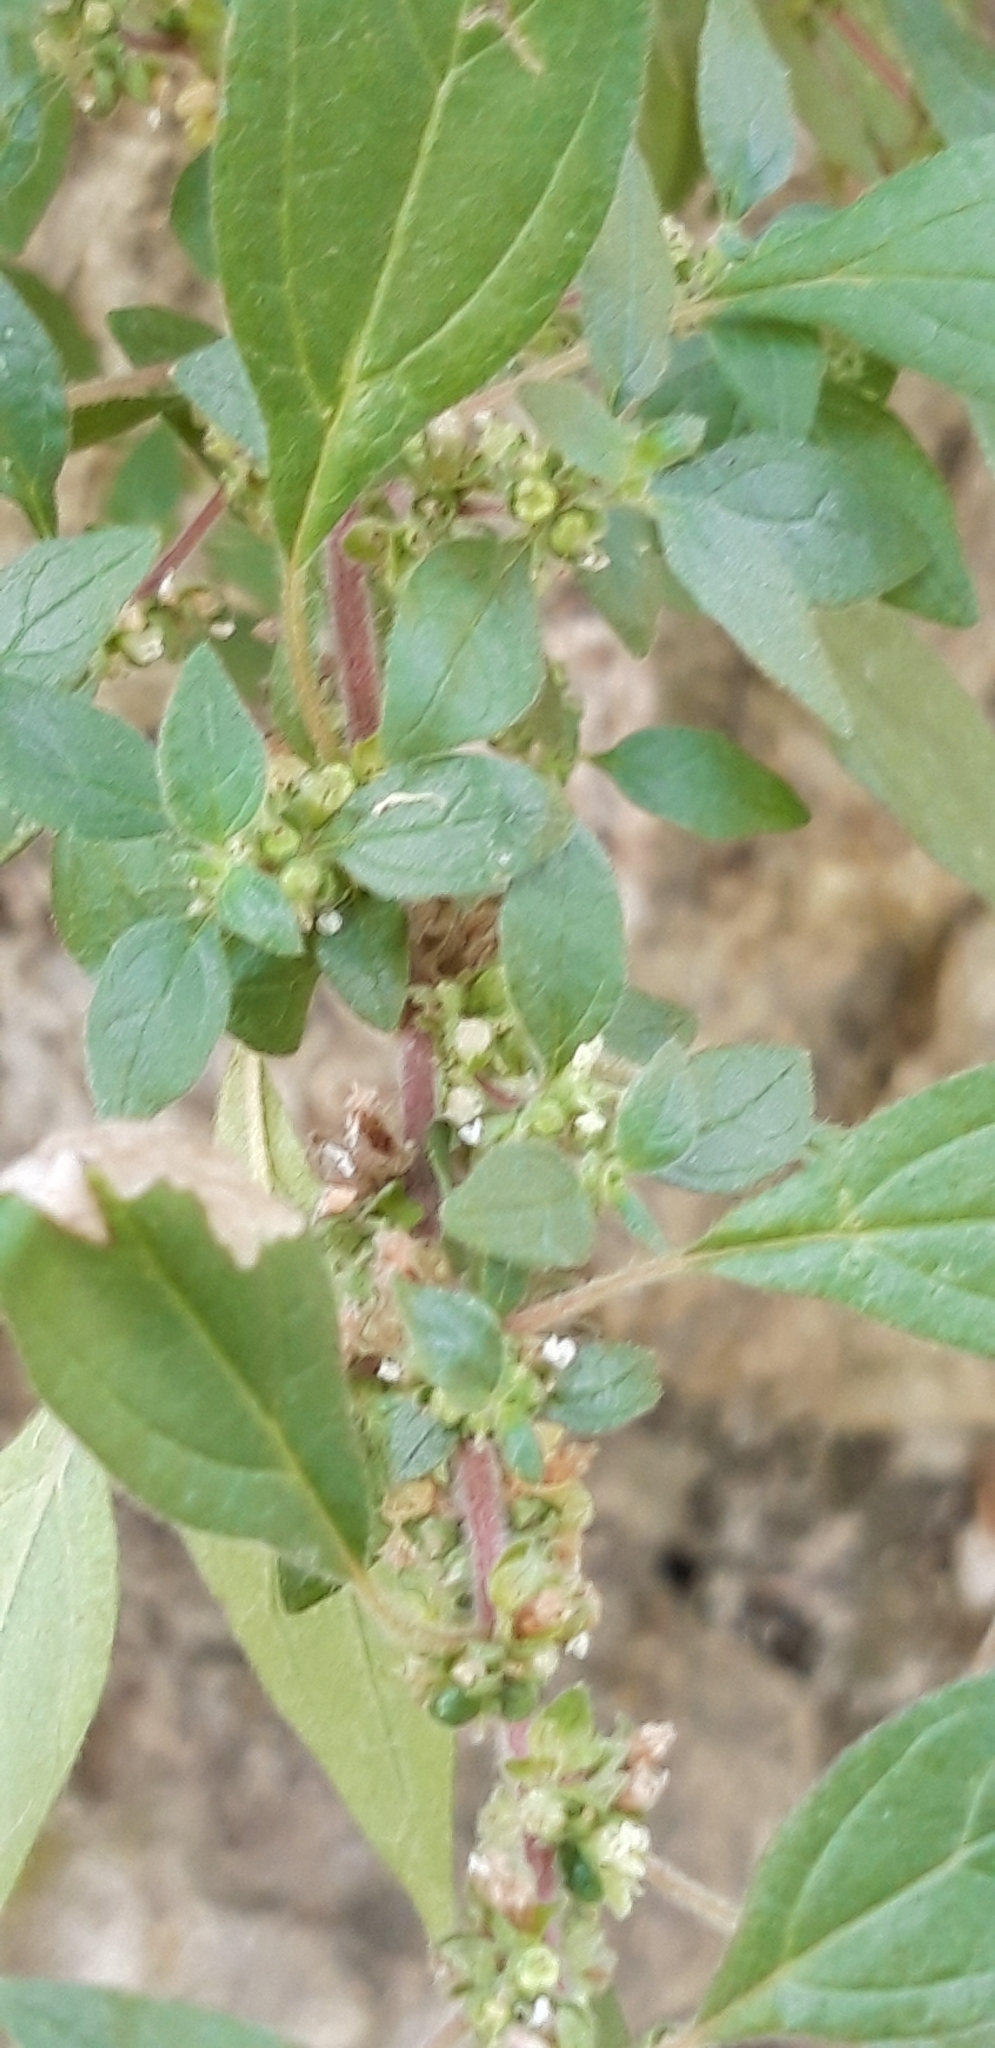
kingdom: Plantae
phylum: Tracheophyta
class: Magnoliopsida
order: Rosales
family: Urticaceae
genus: Parietaria
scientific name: Parietaria judaica
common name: Pellitory-of-the-wall
